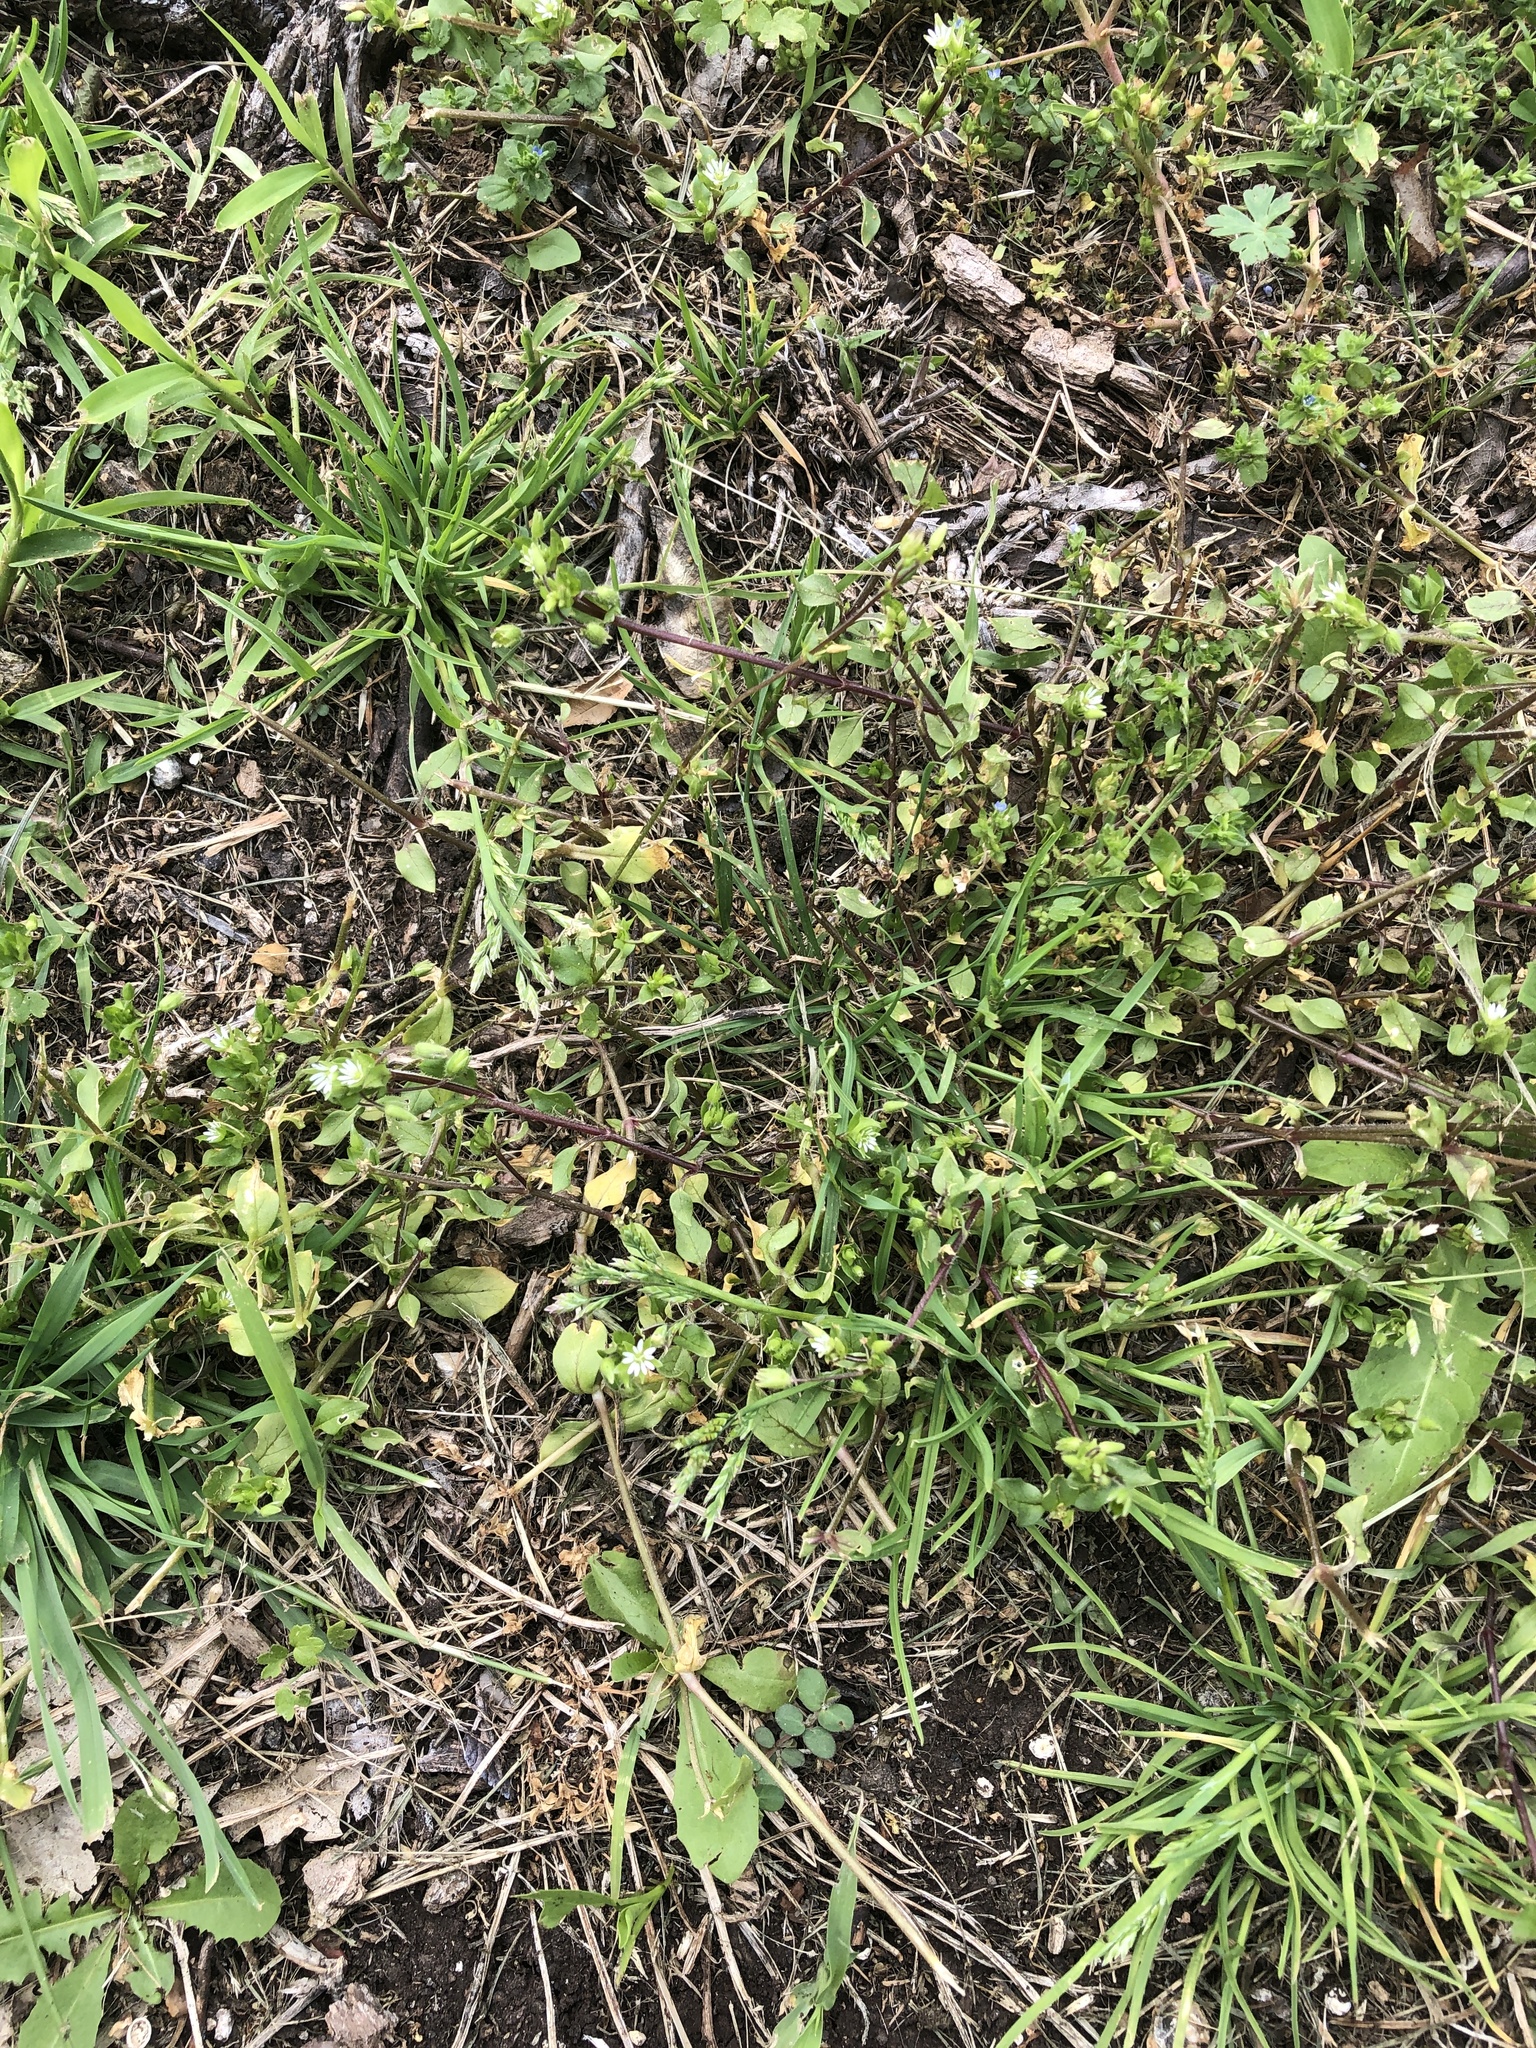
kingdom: Plantae
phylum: Tracheophyta
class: Magnoliopsida
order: Caryophyllales
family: Caryophyllaceae
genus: Stellaria
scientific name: Stellaria media
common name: Common chickweed
